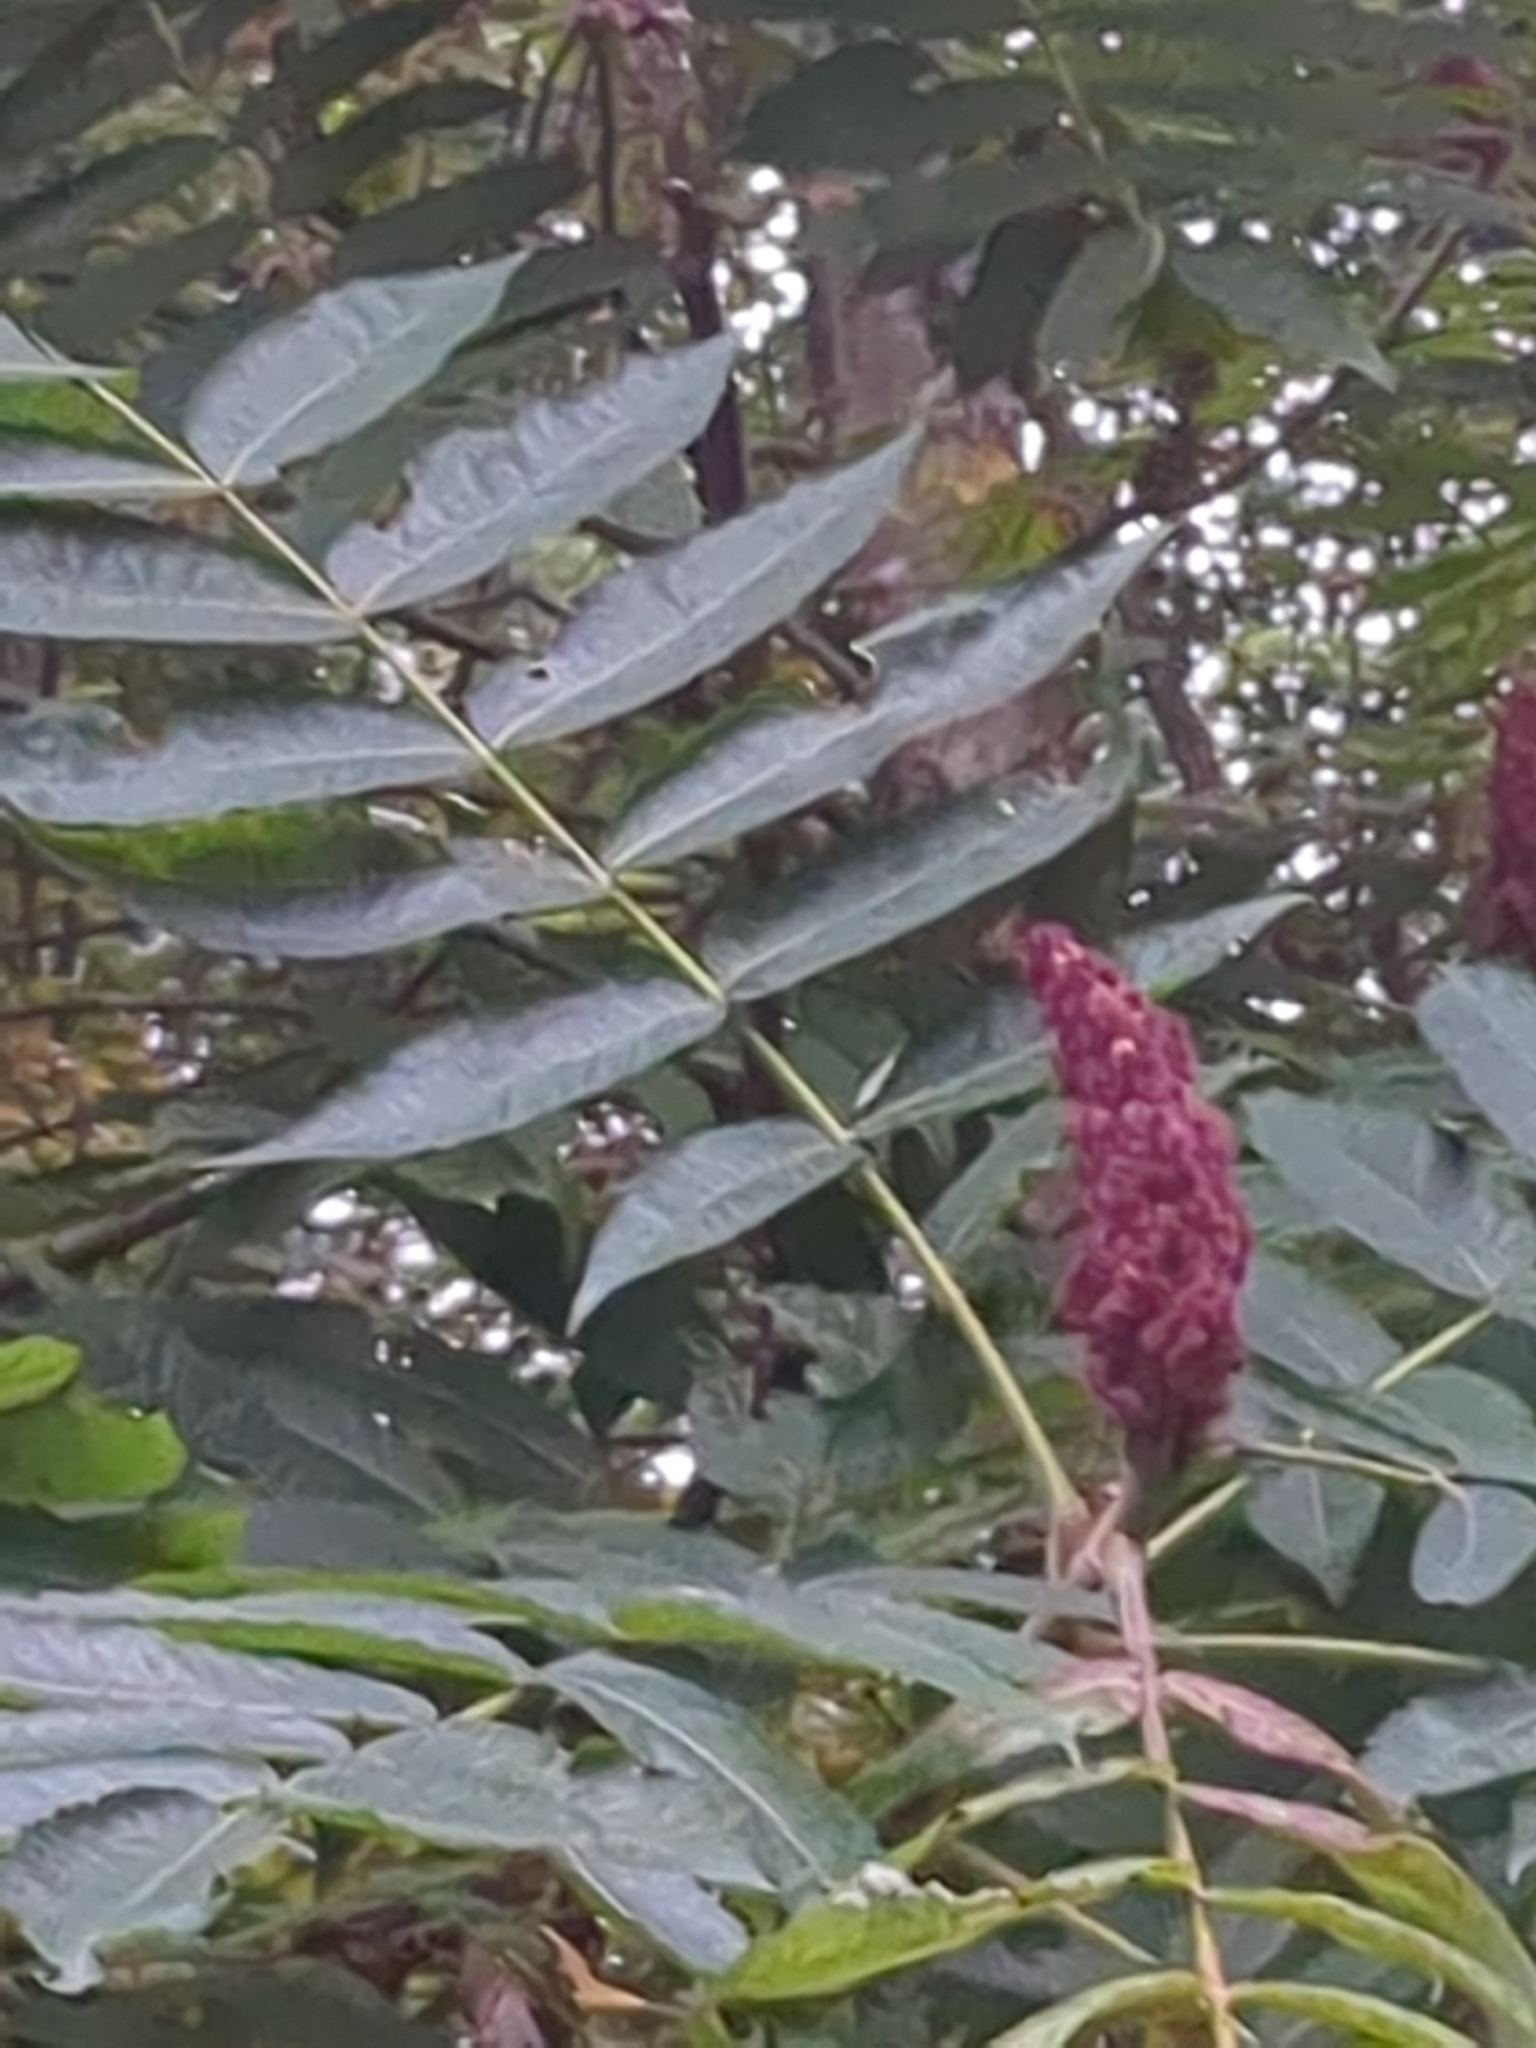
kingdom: Plantae
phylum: Tracheophyta
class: Magnoliopsida
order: Sapindales
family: Anacardiaceae
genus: Rhus
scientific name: Rhus typhina
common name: Staghorn sumac
